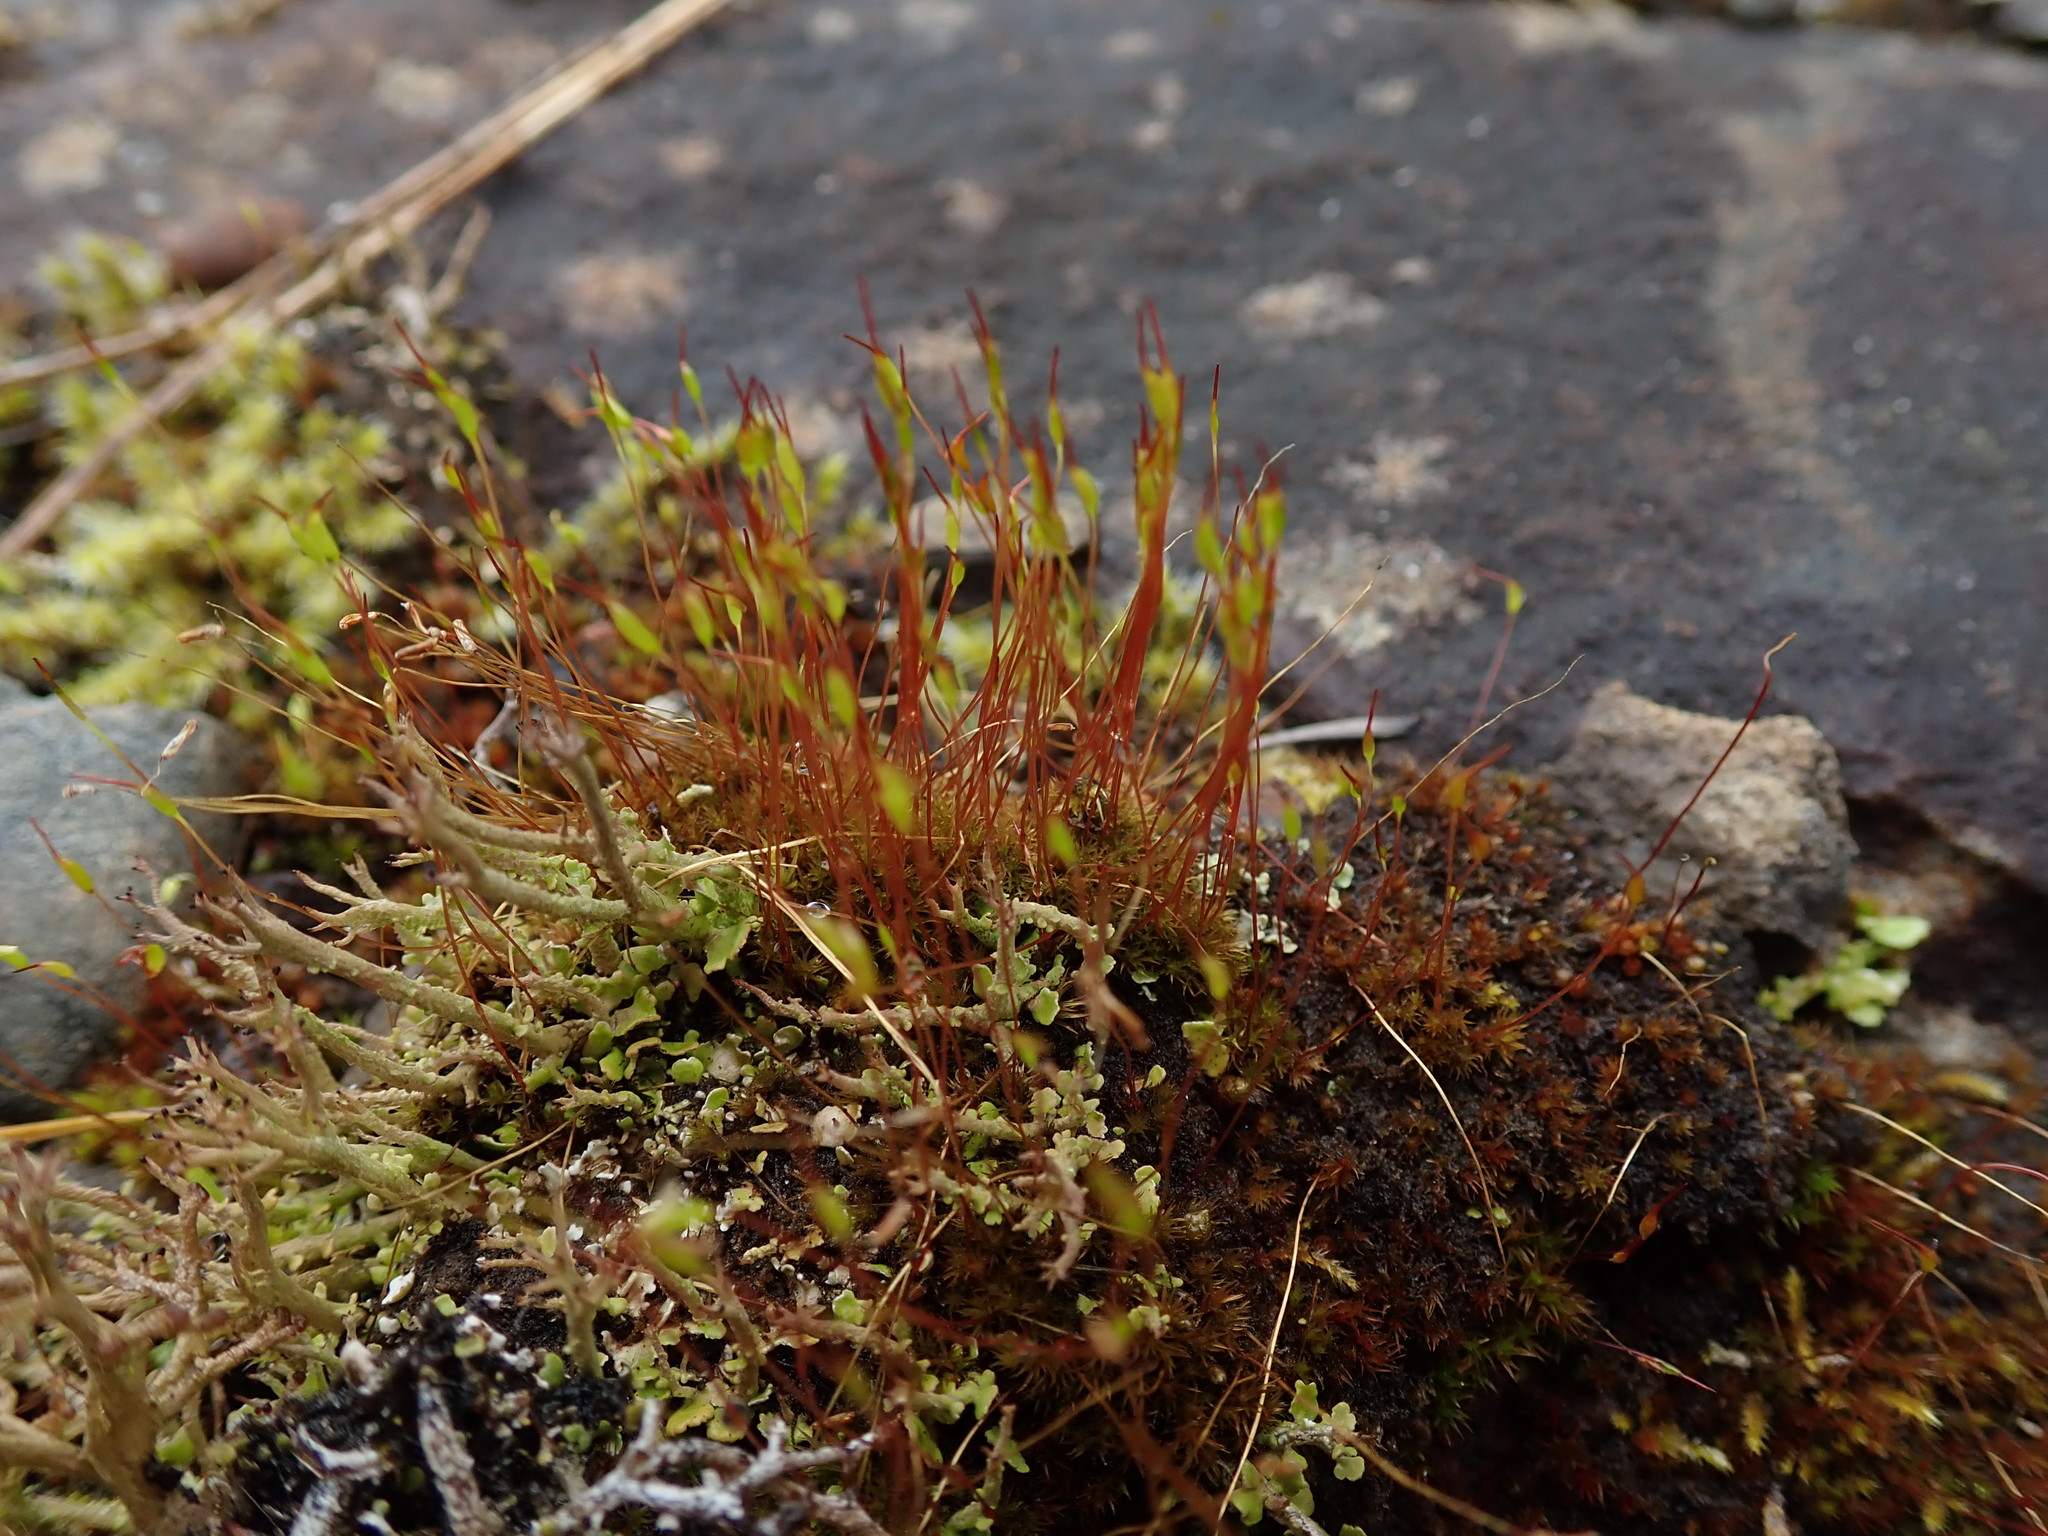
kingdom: Plantae
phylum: Bryophyta
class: Bryopsida
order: Dicranales
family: Ditrichaceae
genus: Ceratodon
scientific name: Ceratodon purpureus
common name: Redshank
